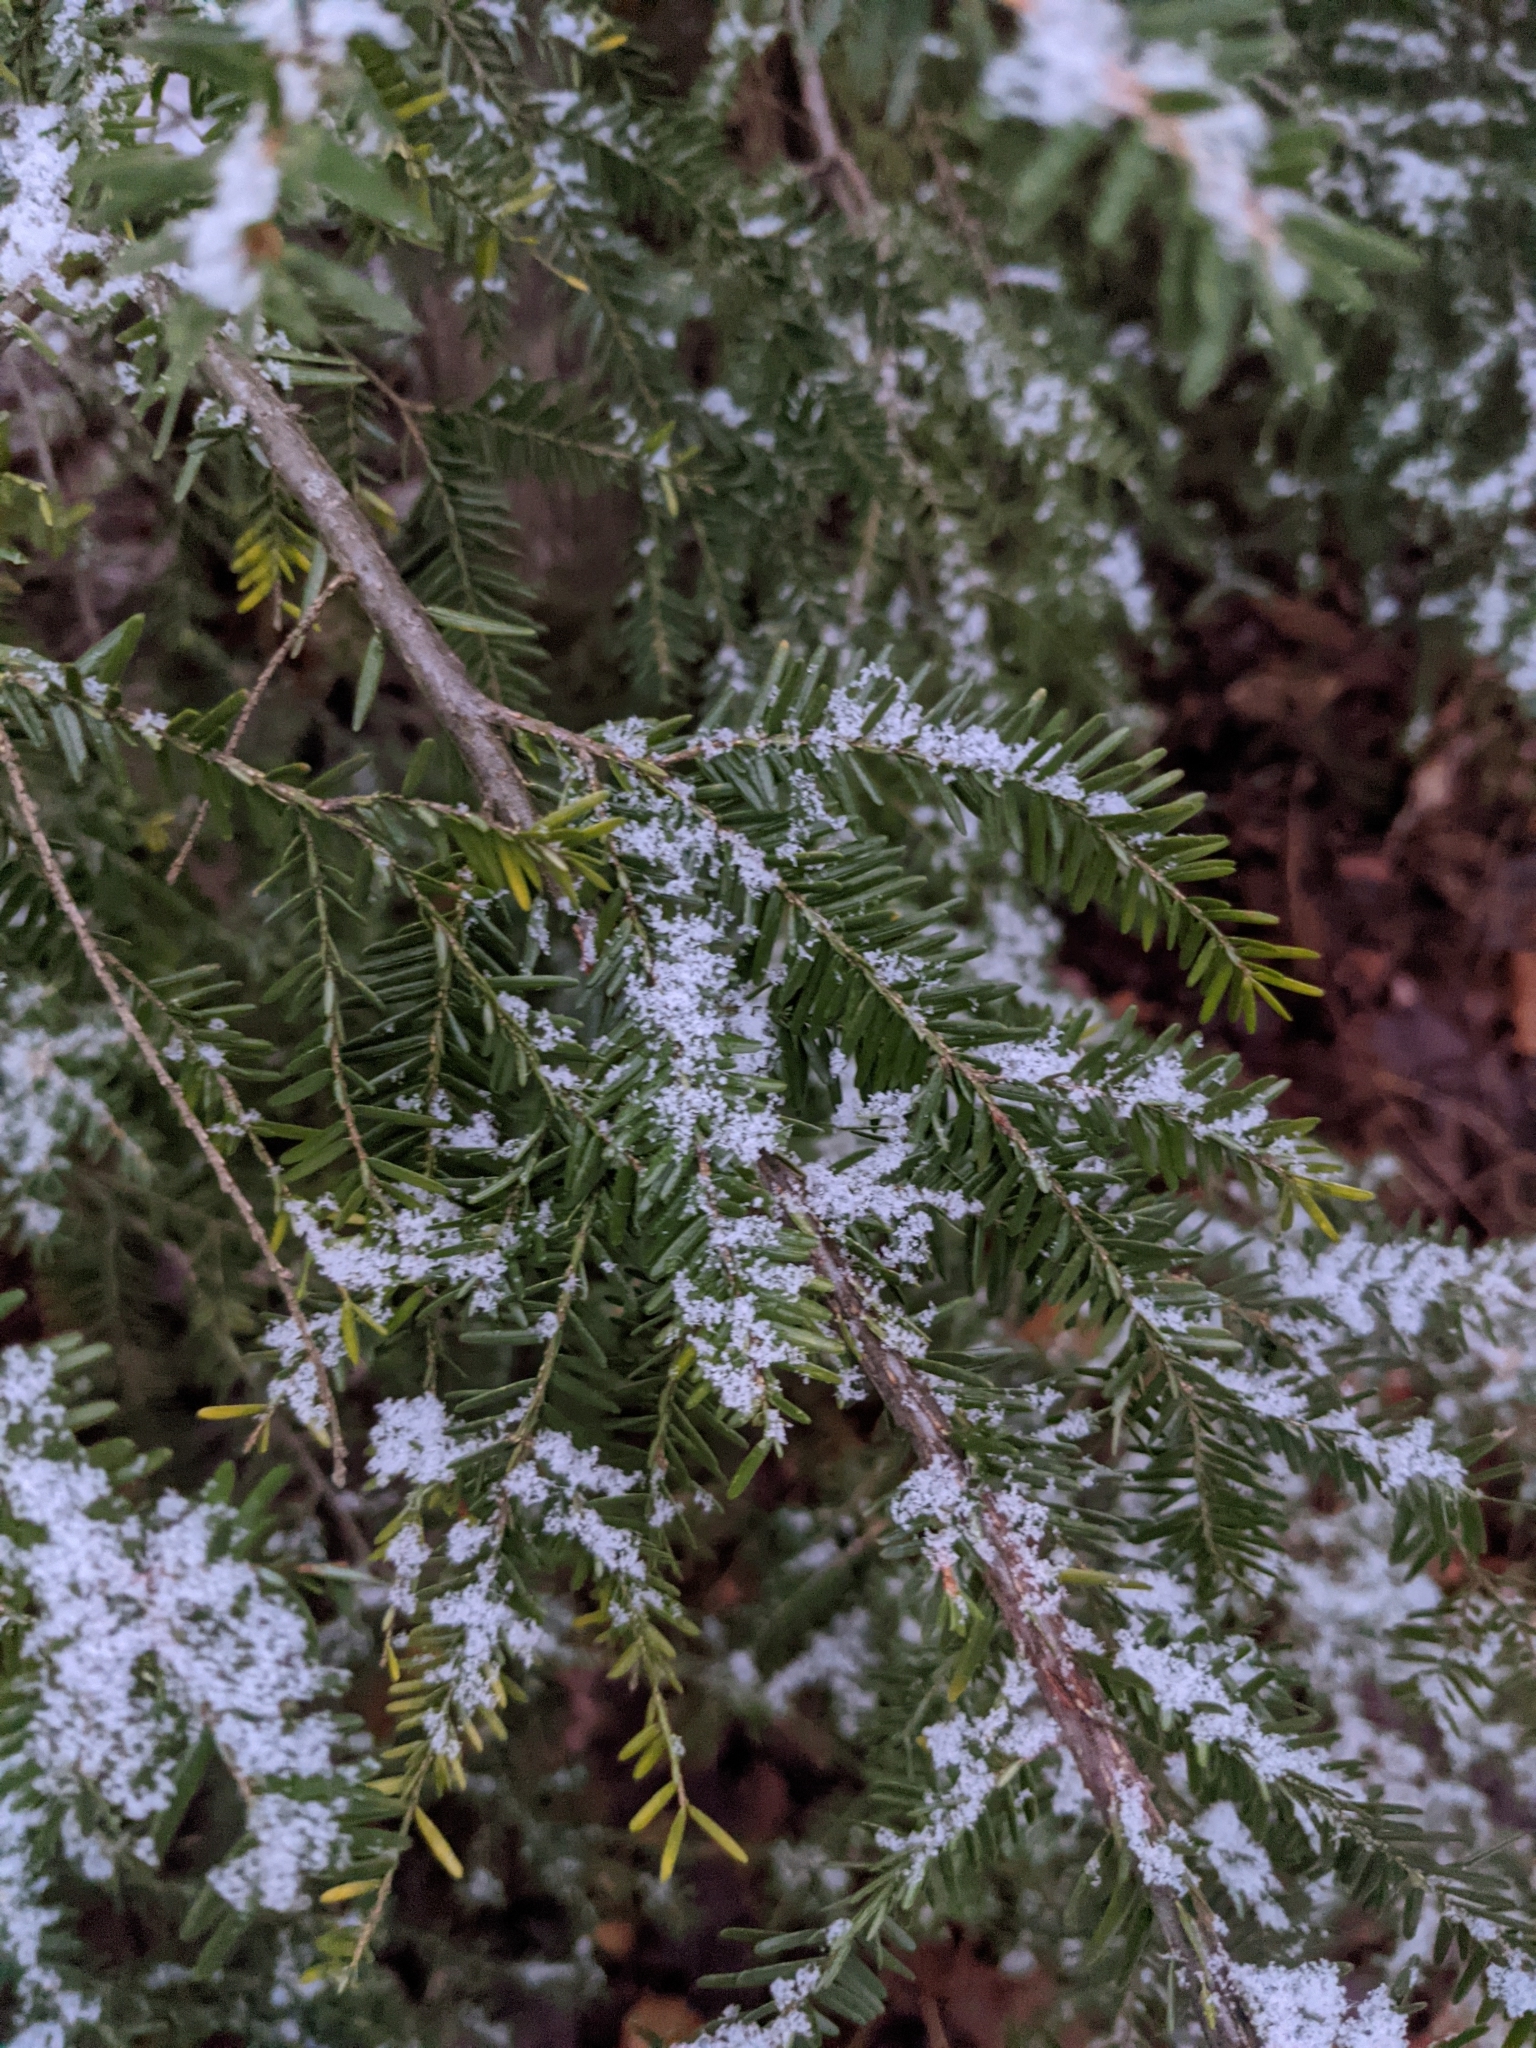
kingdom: Plantae
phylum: Tracheophyta
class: Pinopsida
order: Pinales
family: Pinaceae
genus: Tsuga
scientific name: Tsuga canadensis
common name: Eastern hemlock
